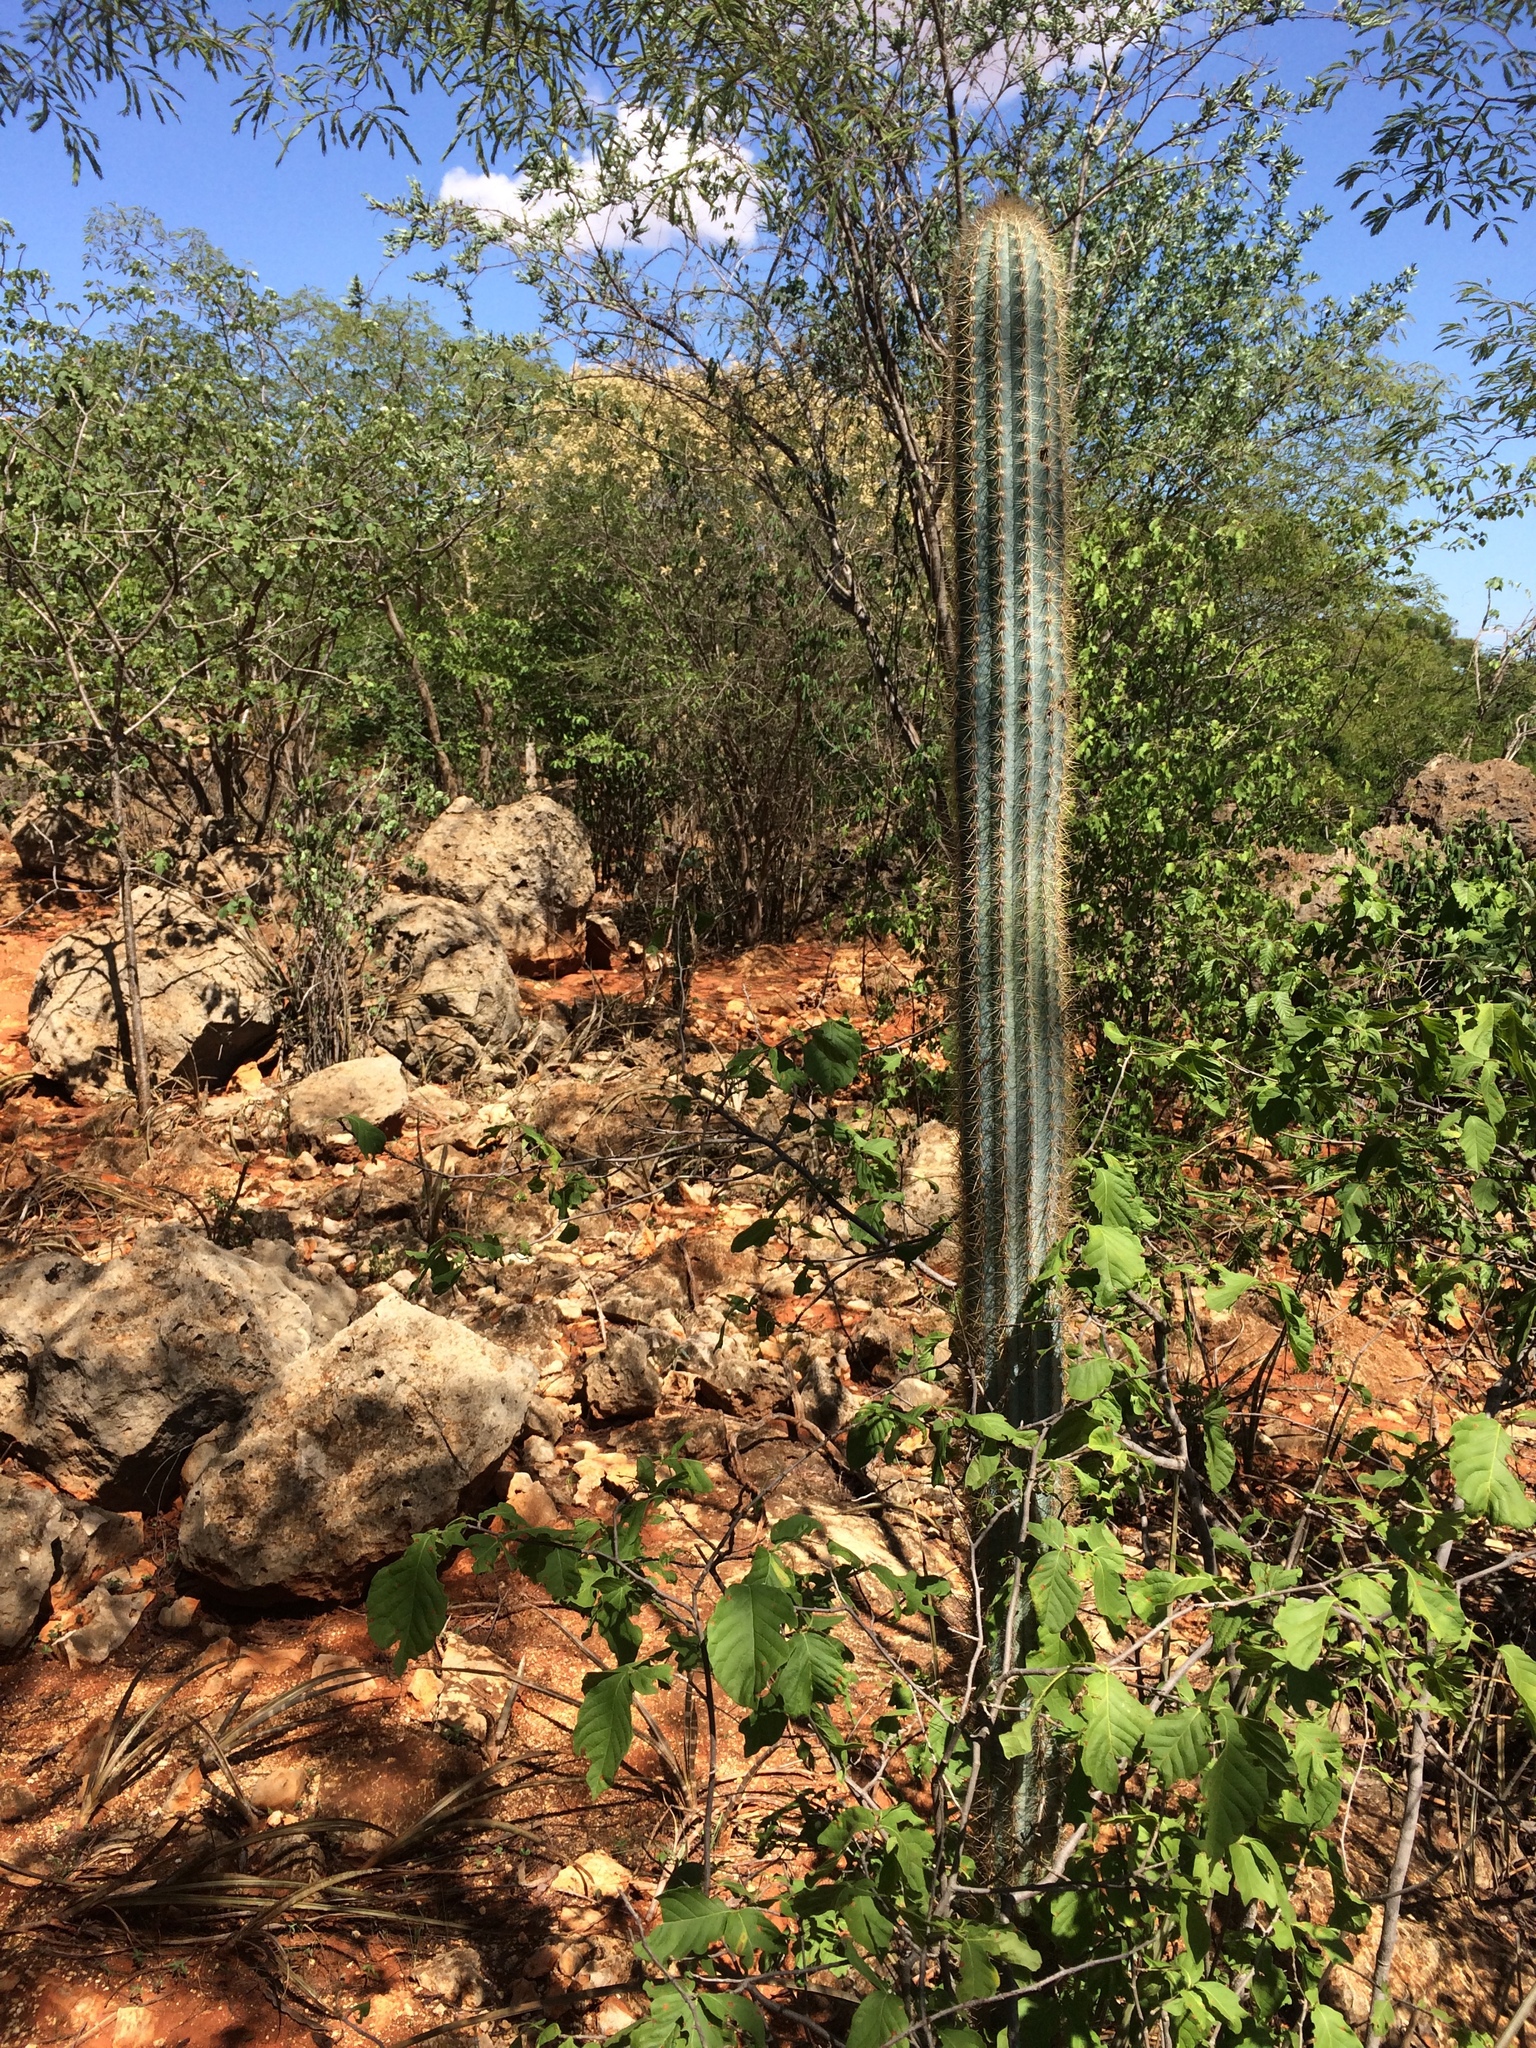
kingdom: Plantae
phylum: Tracheophyta
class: Magnoliopsida
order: Caryophyllales
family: Cactaceae
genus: Pilosocereus
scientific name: Pilosocereus pachycladus
